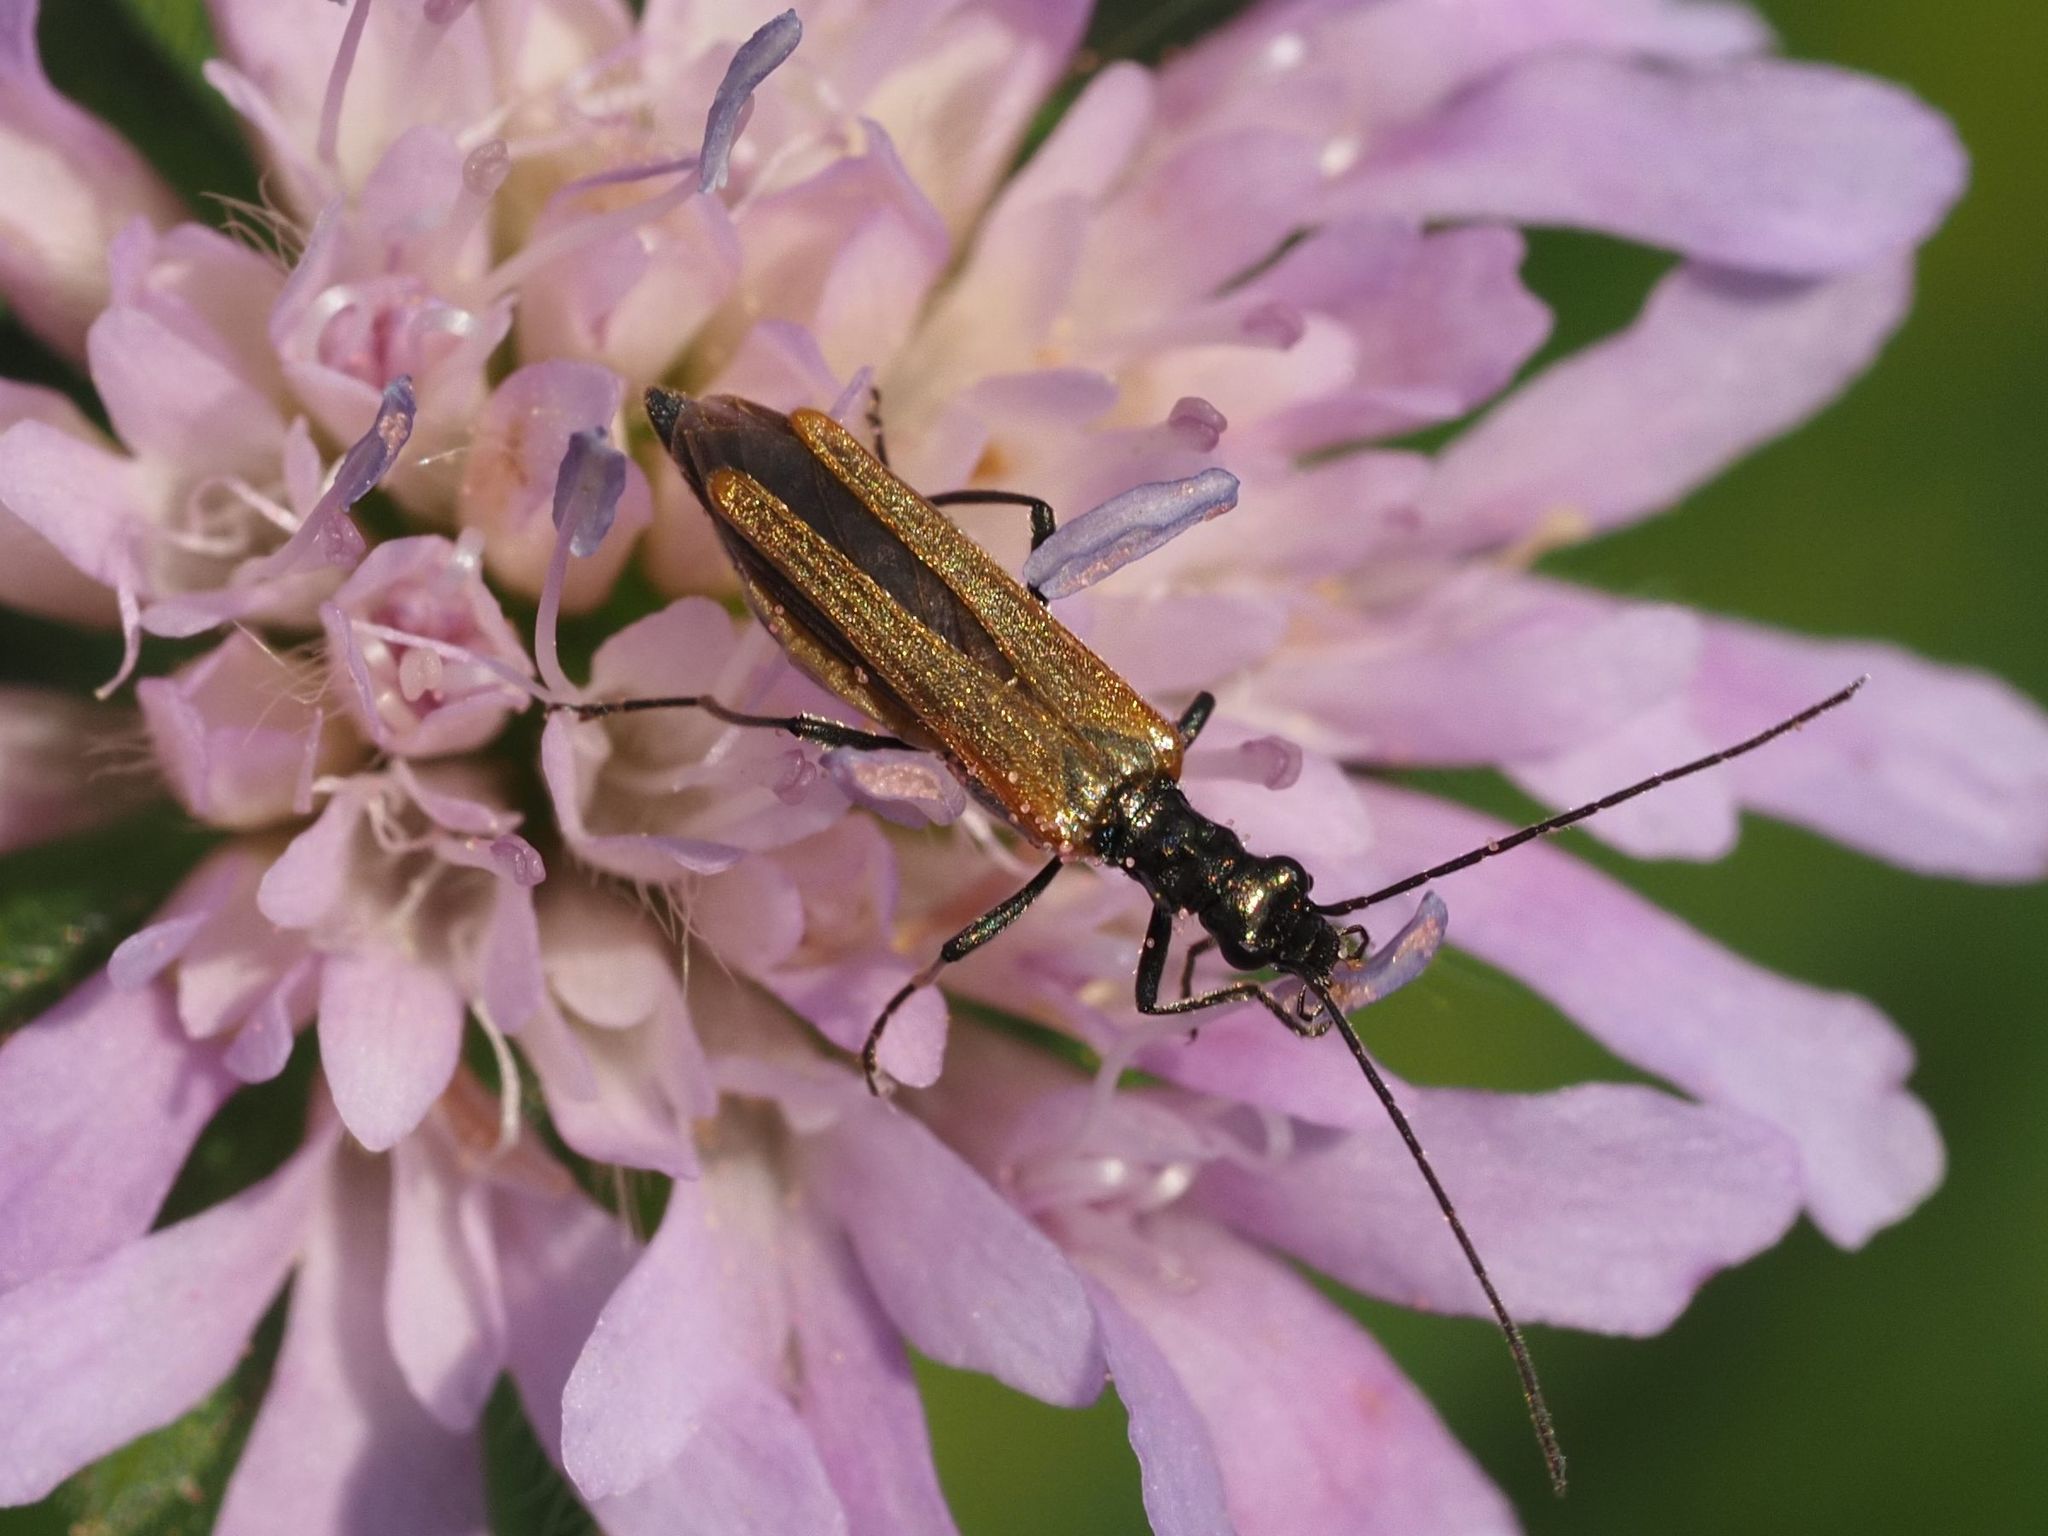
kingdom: Animalia
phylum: Arthropoda
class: Insecta
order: Coleoptera
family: Oedemeridae
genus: Oedemera
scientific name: Oedemera femorata
